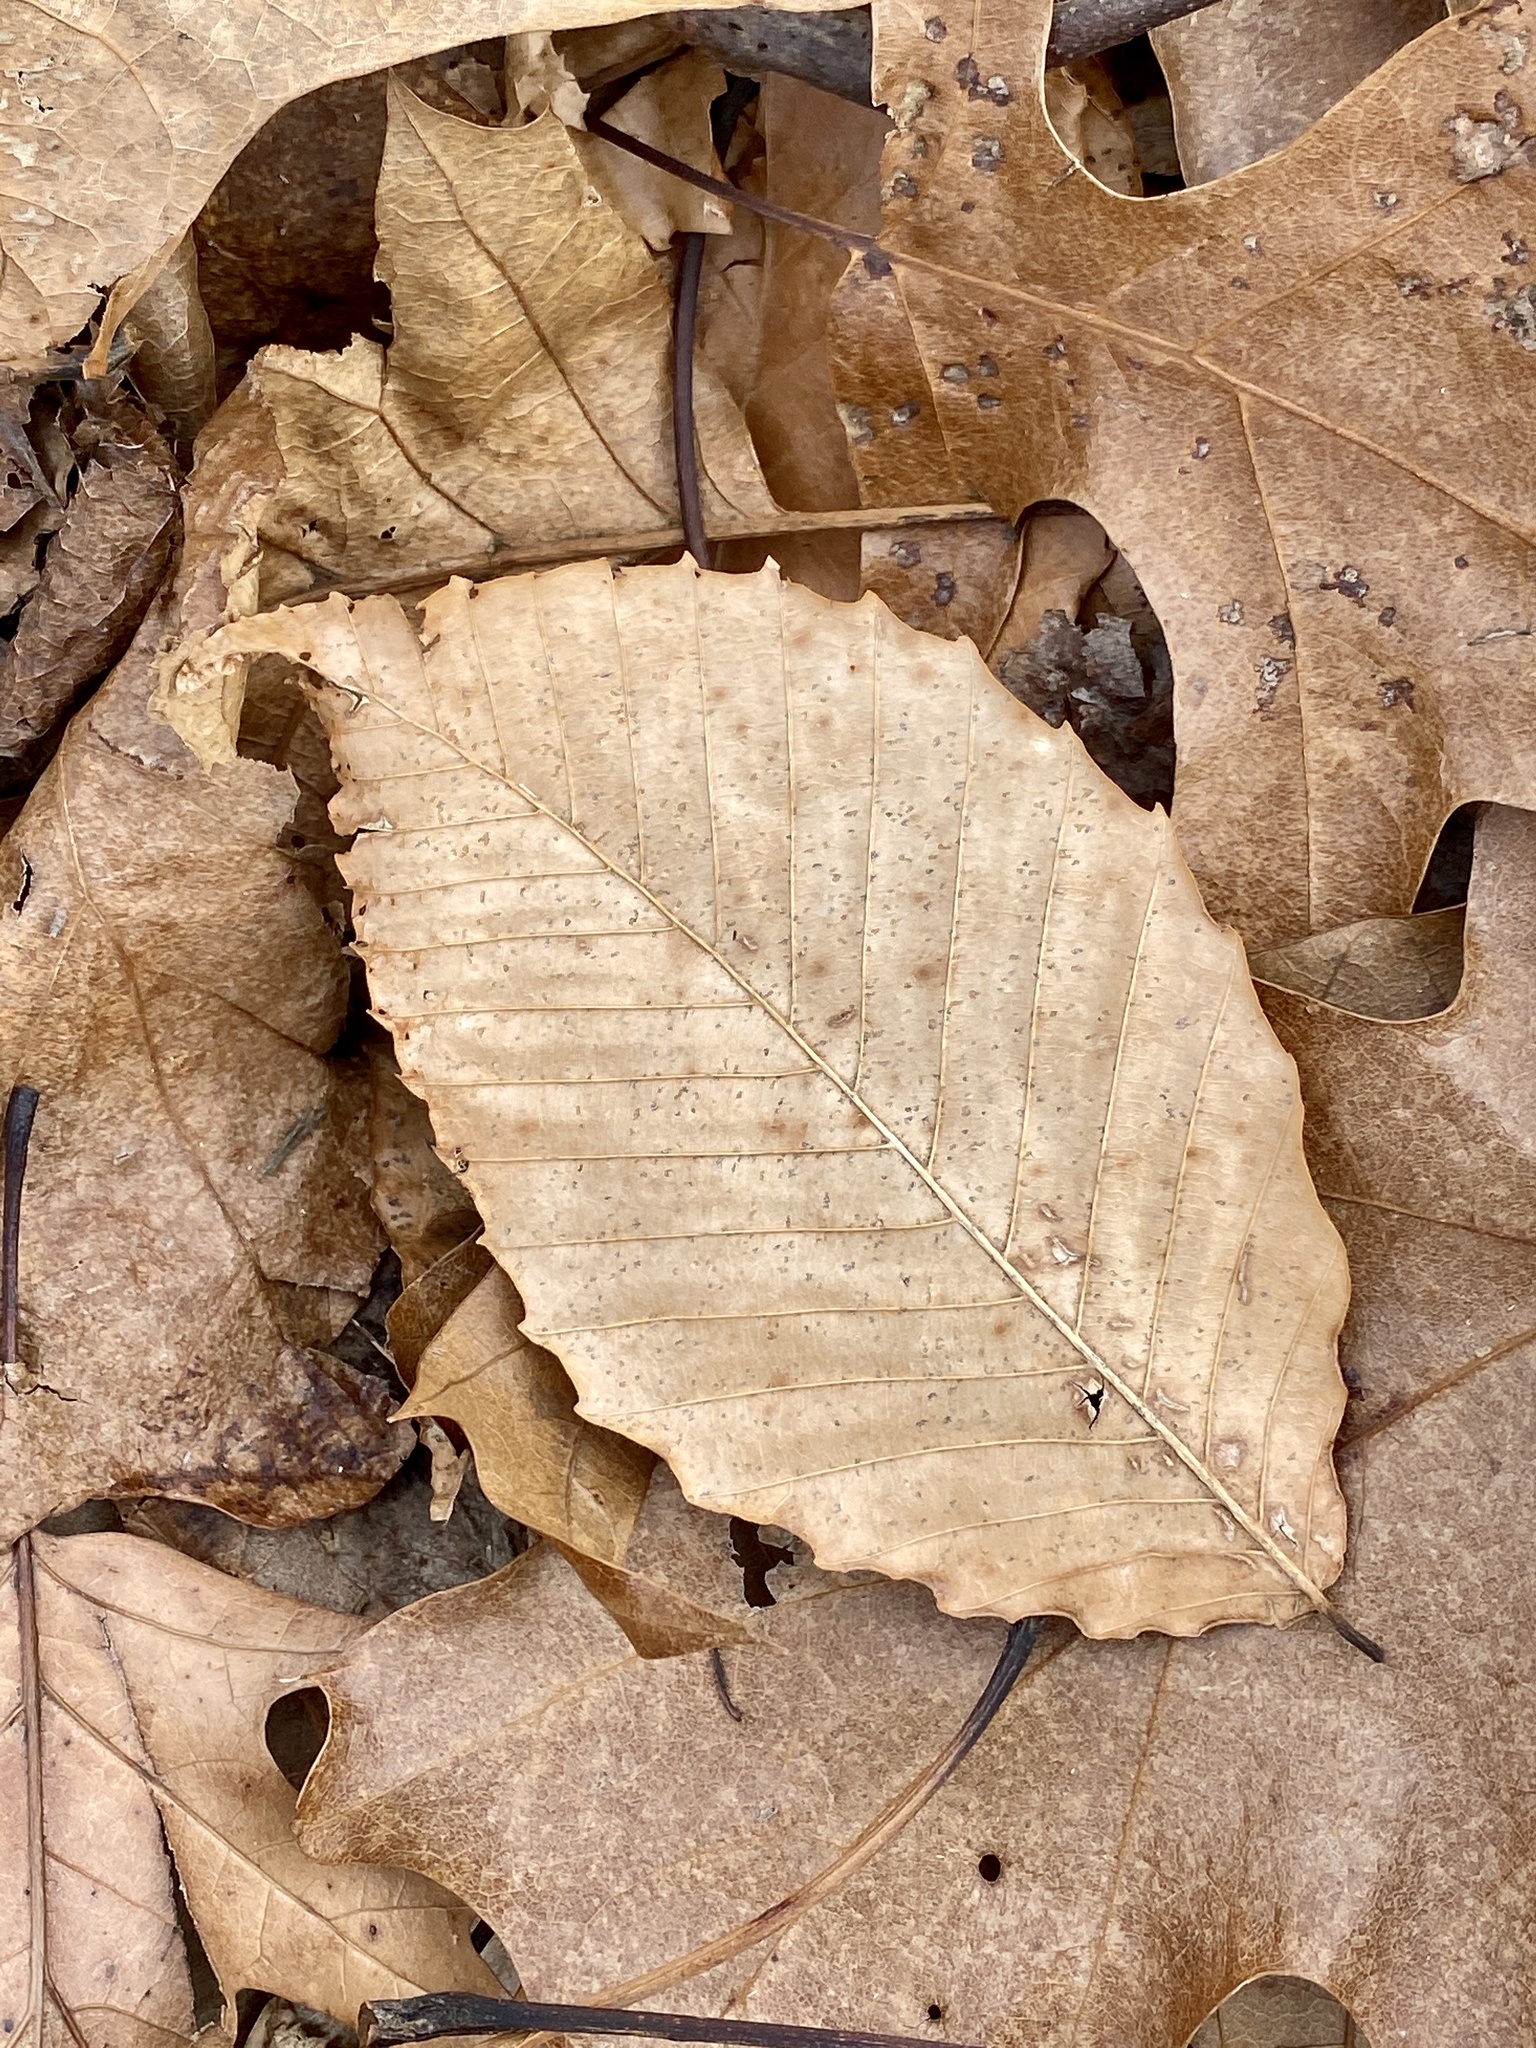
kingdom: Plantae
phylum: Tracheophyta
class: Magnoliopsida
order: Fagales
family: Fagaceae
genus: Fagus
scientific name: Fagus grandifolia
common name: American beech
